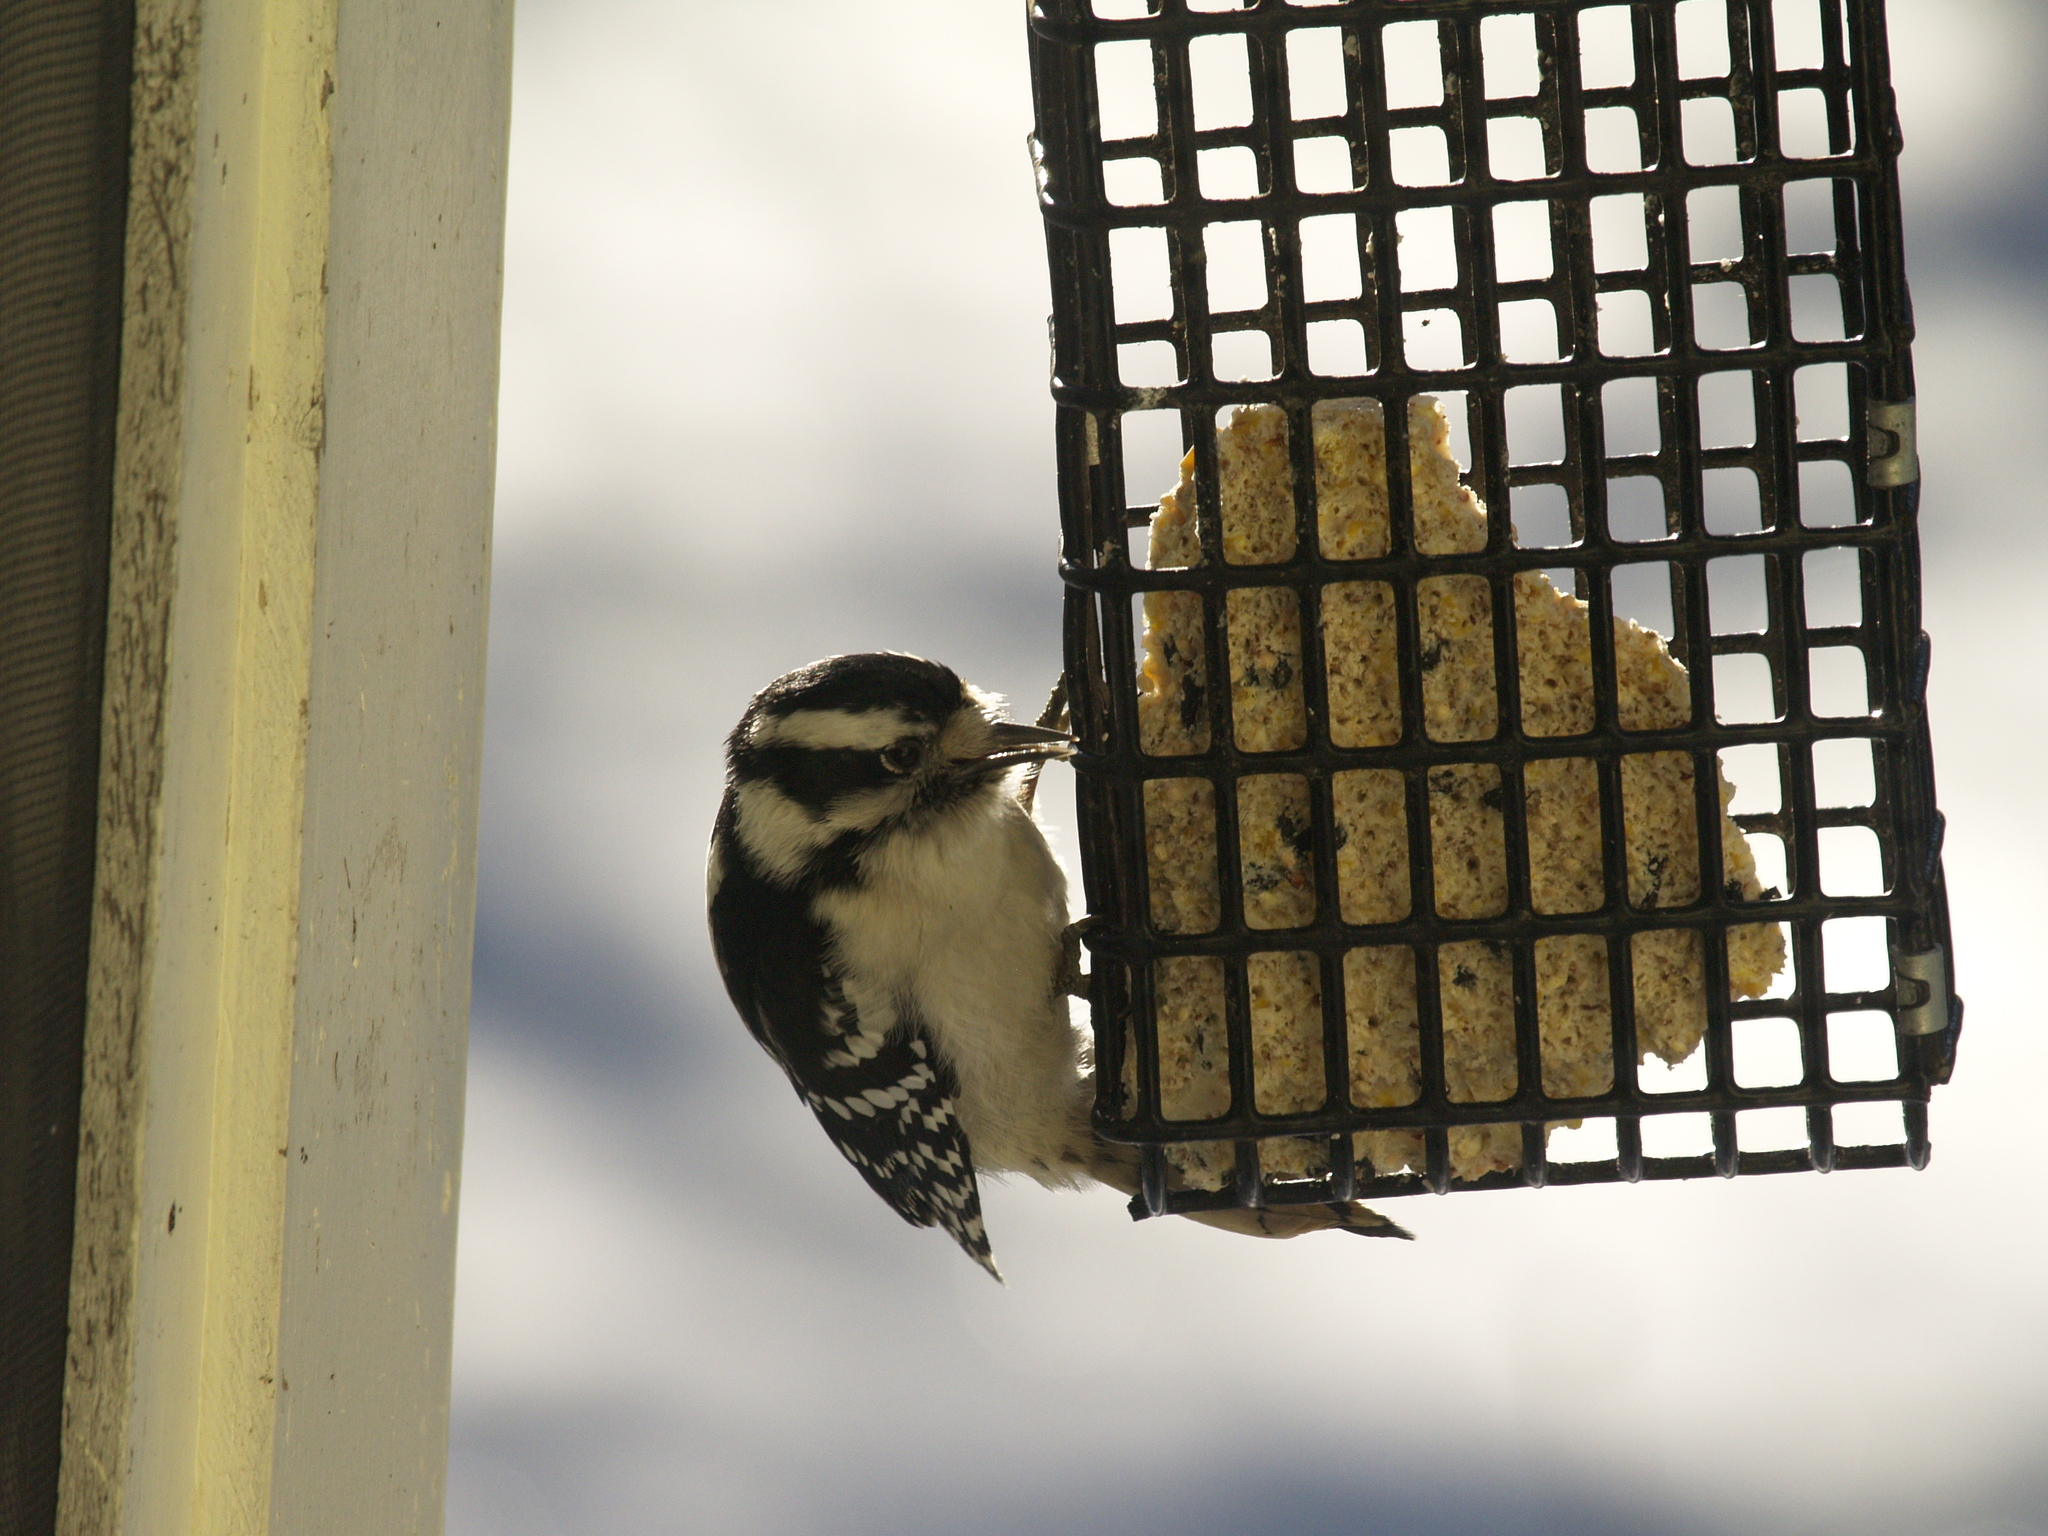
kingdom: Animalia
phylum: Chordata
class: Aves
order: Piciformes
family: Picidae
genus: Dryobates
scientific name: Dryobates pubescens
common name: Downy woodpecker
